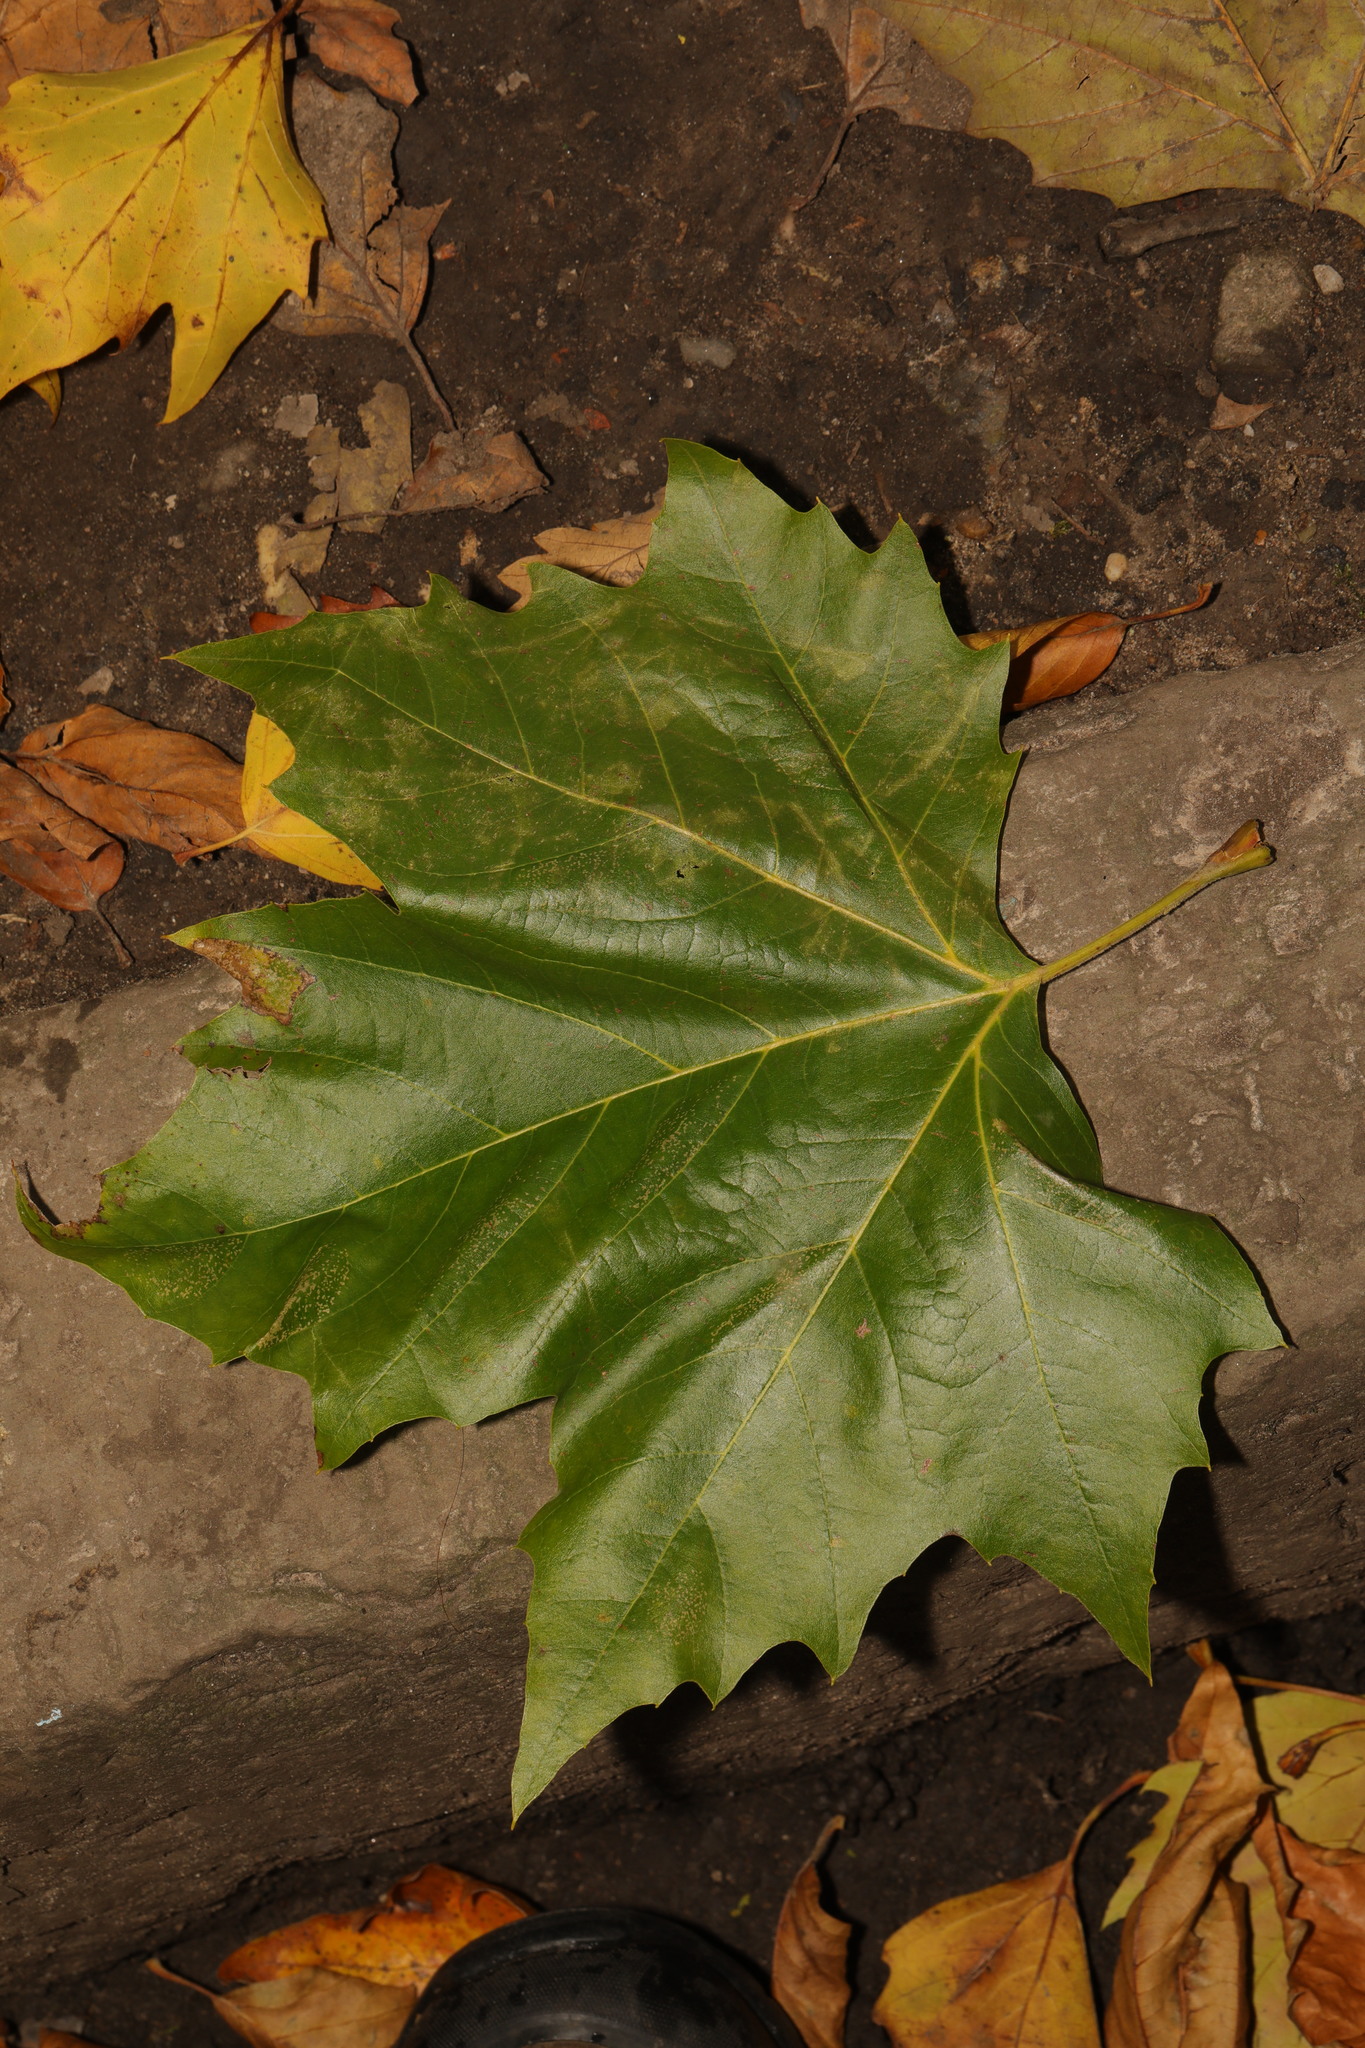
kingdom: Plantae
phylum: Tracheophyta
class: Magnoliopsida
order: Proteales
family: Platanaceae
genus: Platanus
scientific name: Platanus hispanica
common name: London plane
